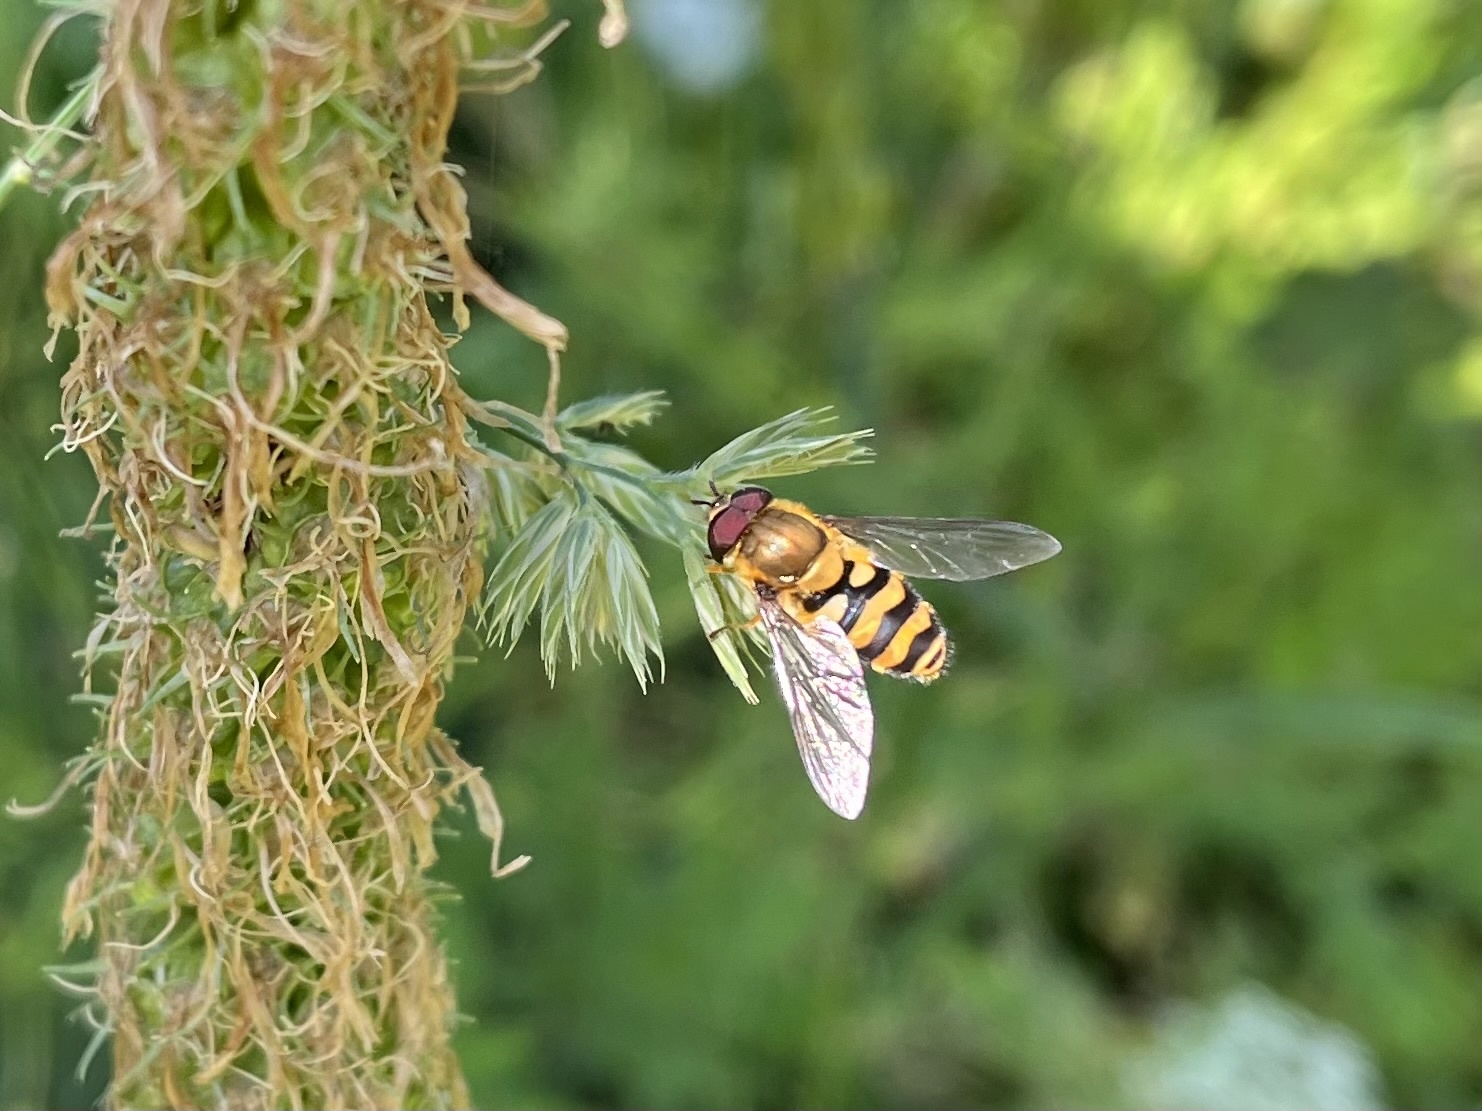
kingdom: Animalia
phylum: Arthropoda
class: Insecta
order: Diptera
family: Syrphidae
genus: Syrphus
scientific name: Syrphus
